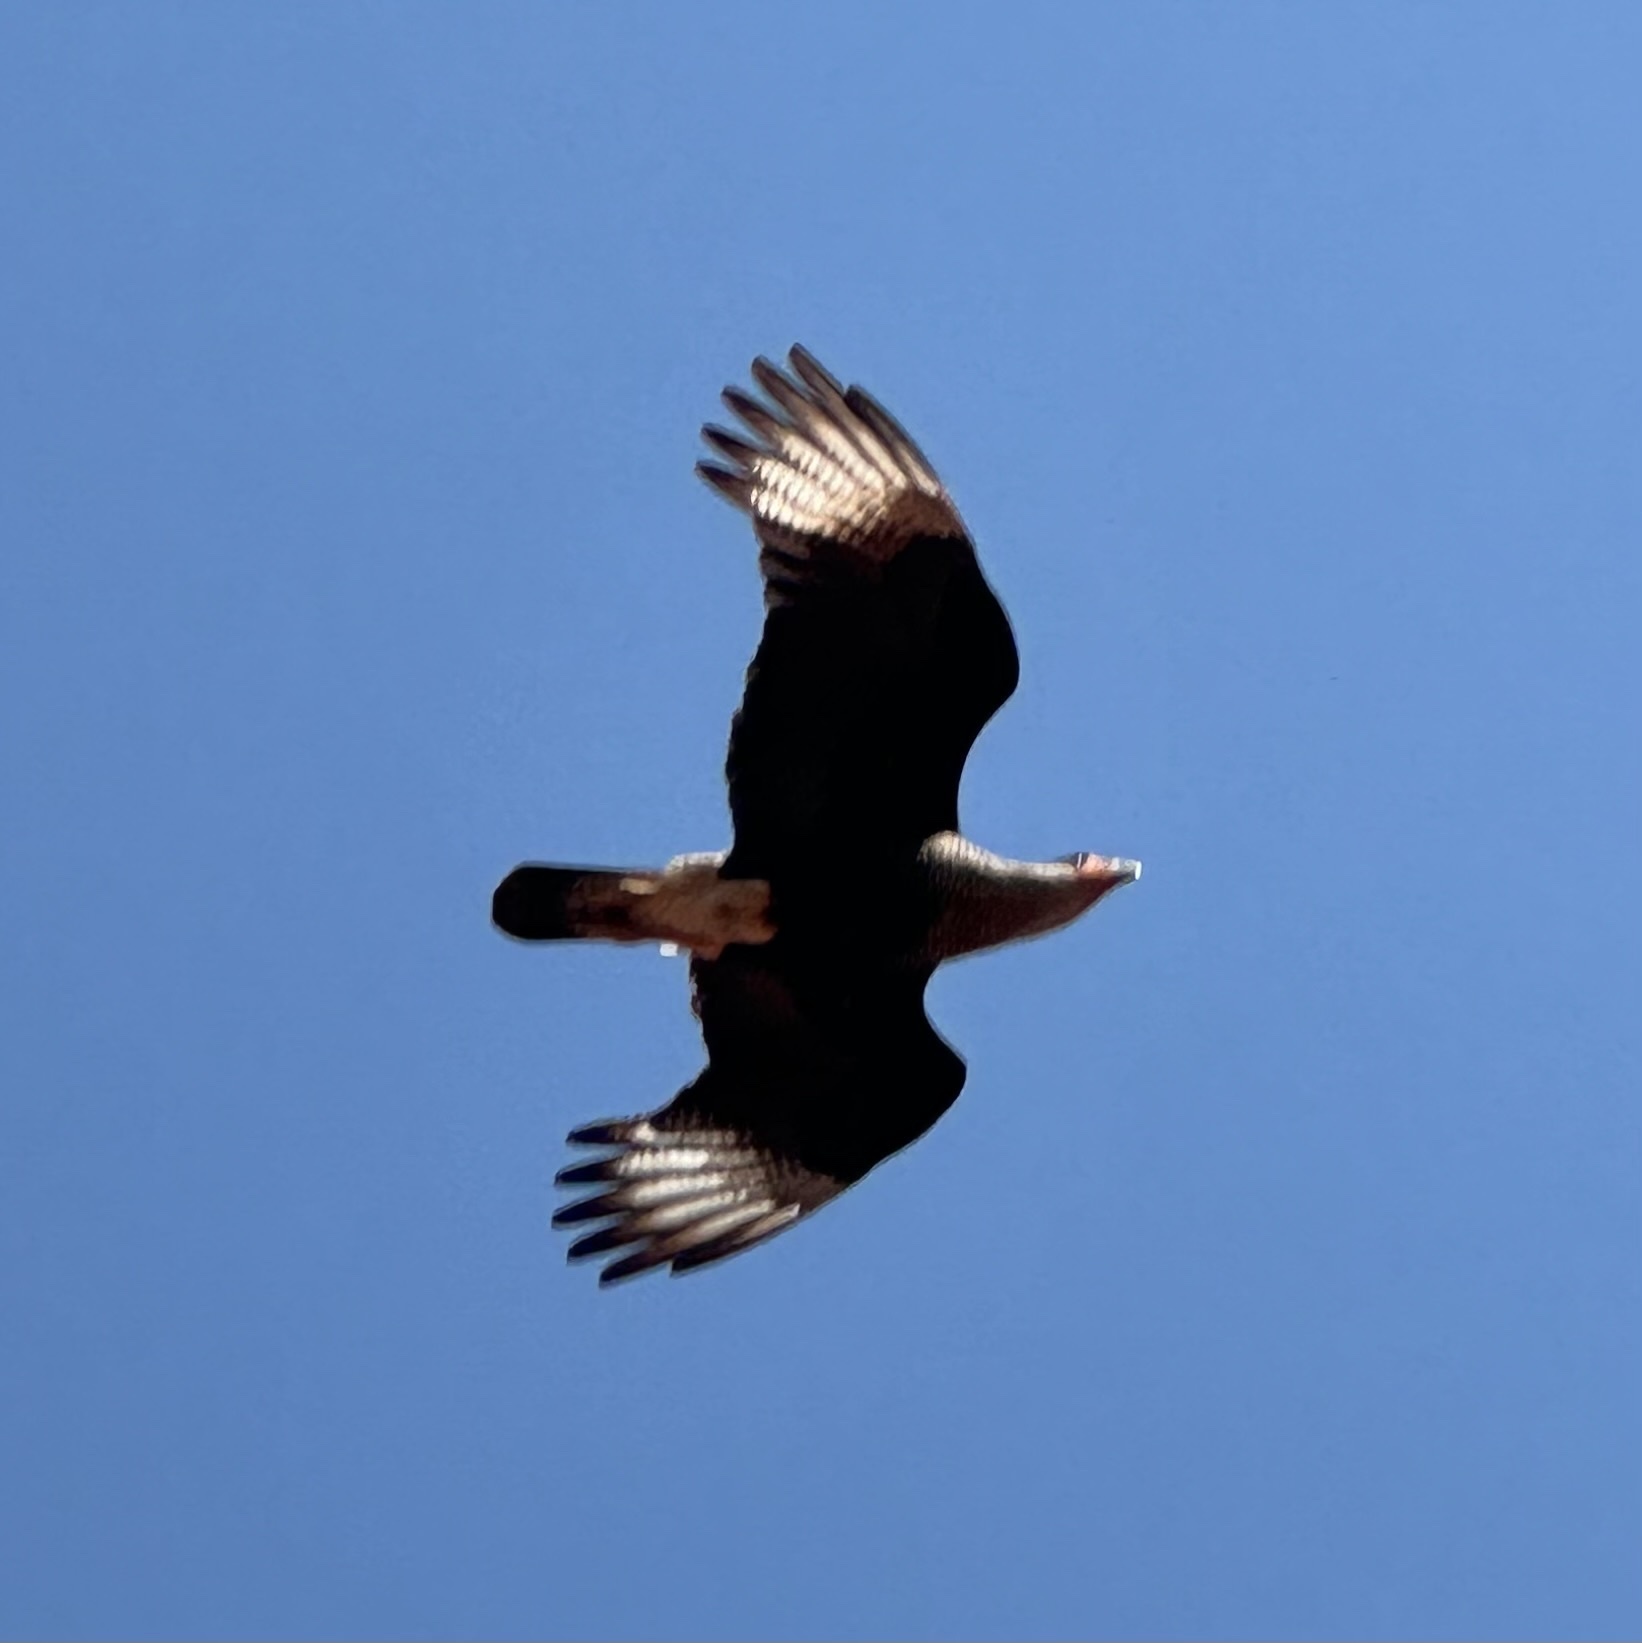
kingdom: Animalia
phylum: Chordata
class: Aves
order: Falconiformes
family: Falconidae
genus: Caracara
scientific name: Caracara plancus
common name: Southern caracara
